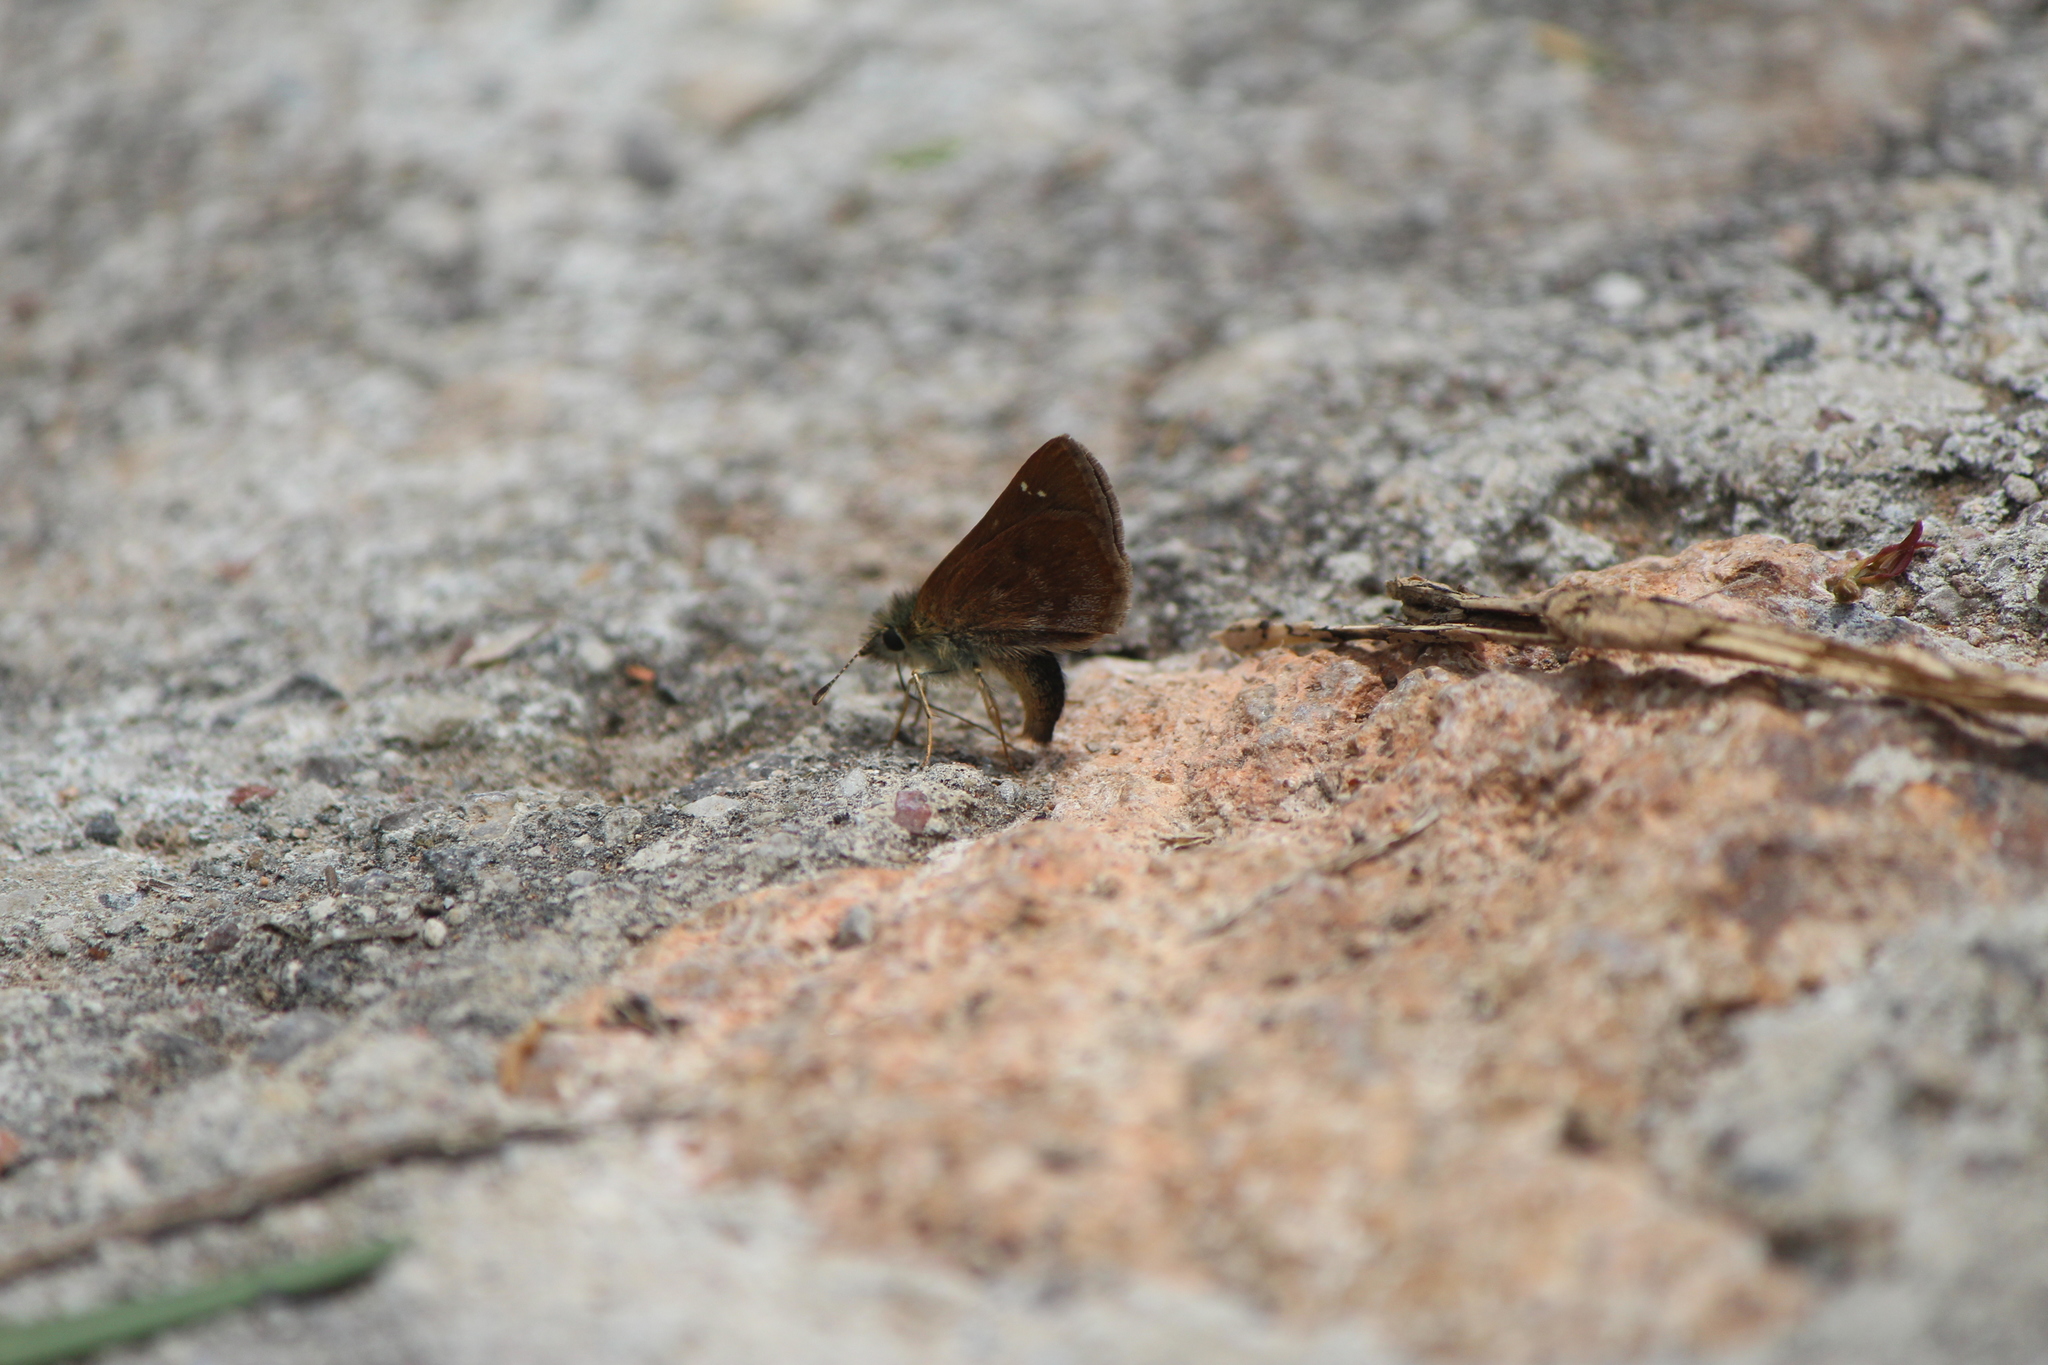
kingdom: Animalia
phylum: Arthropoda
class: Insecta
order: Lepidoptera
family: Hesperiidae
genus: Piruna
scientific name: Piruna cyclosticta
